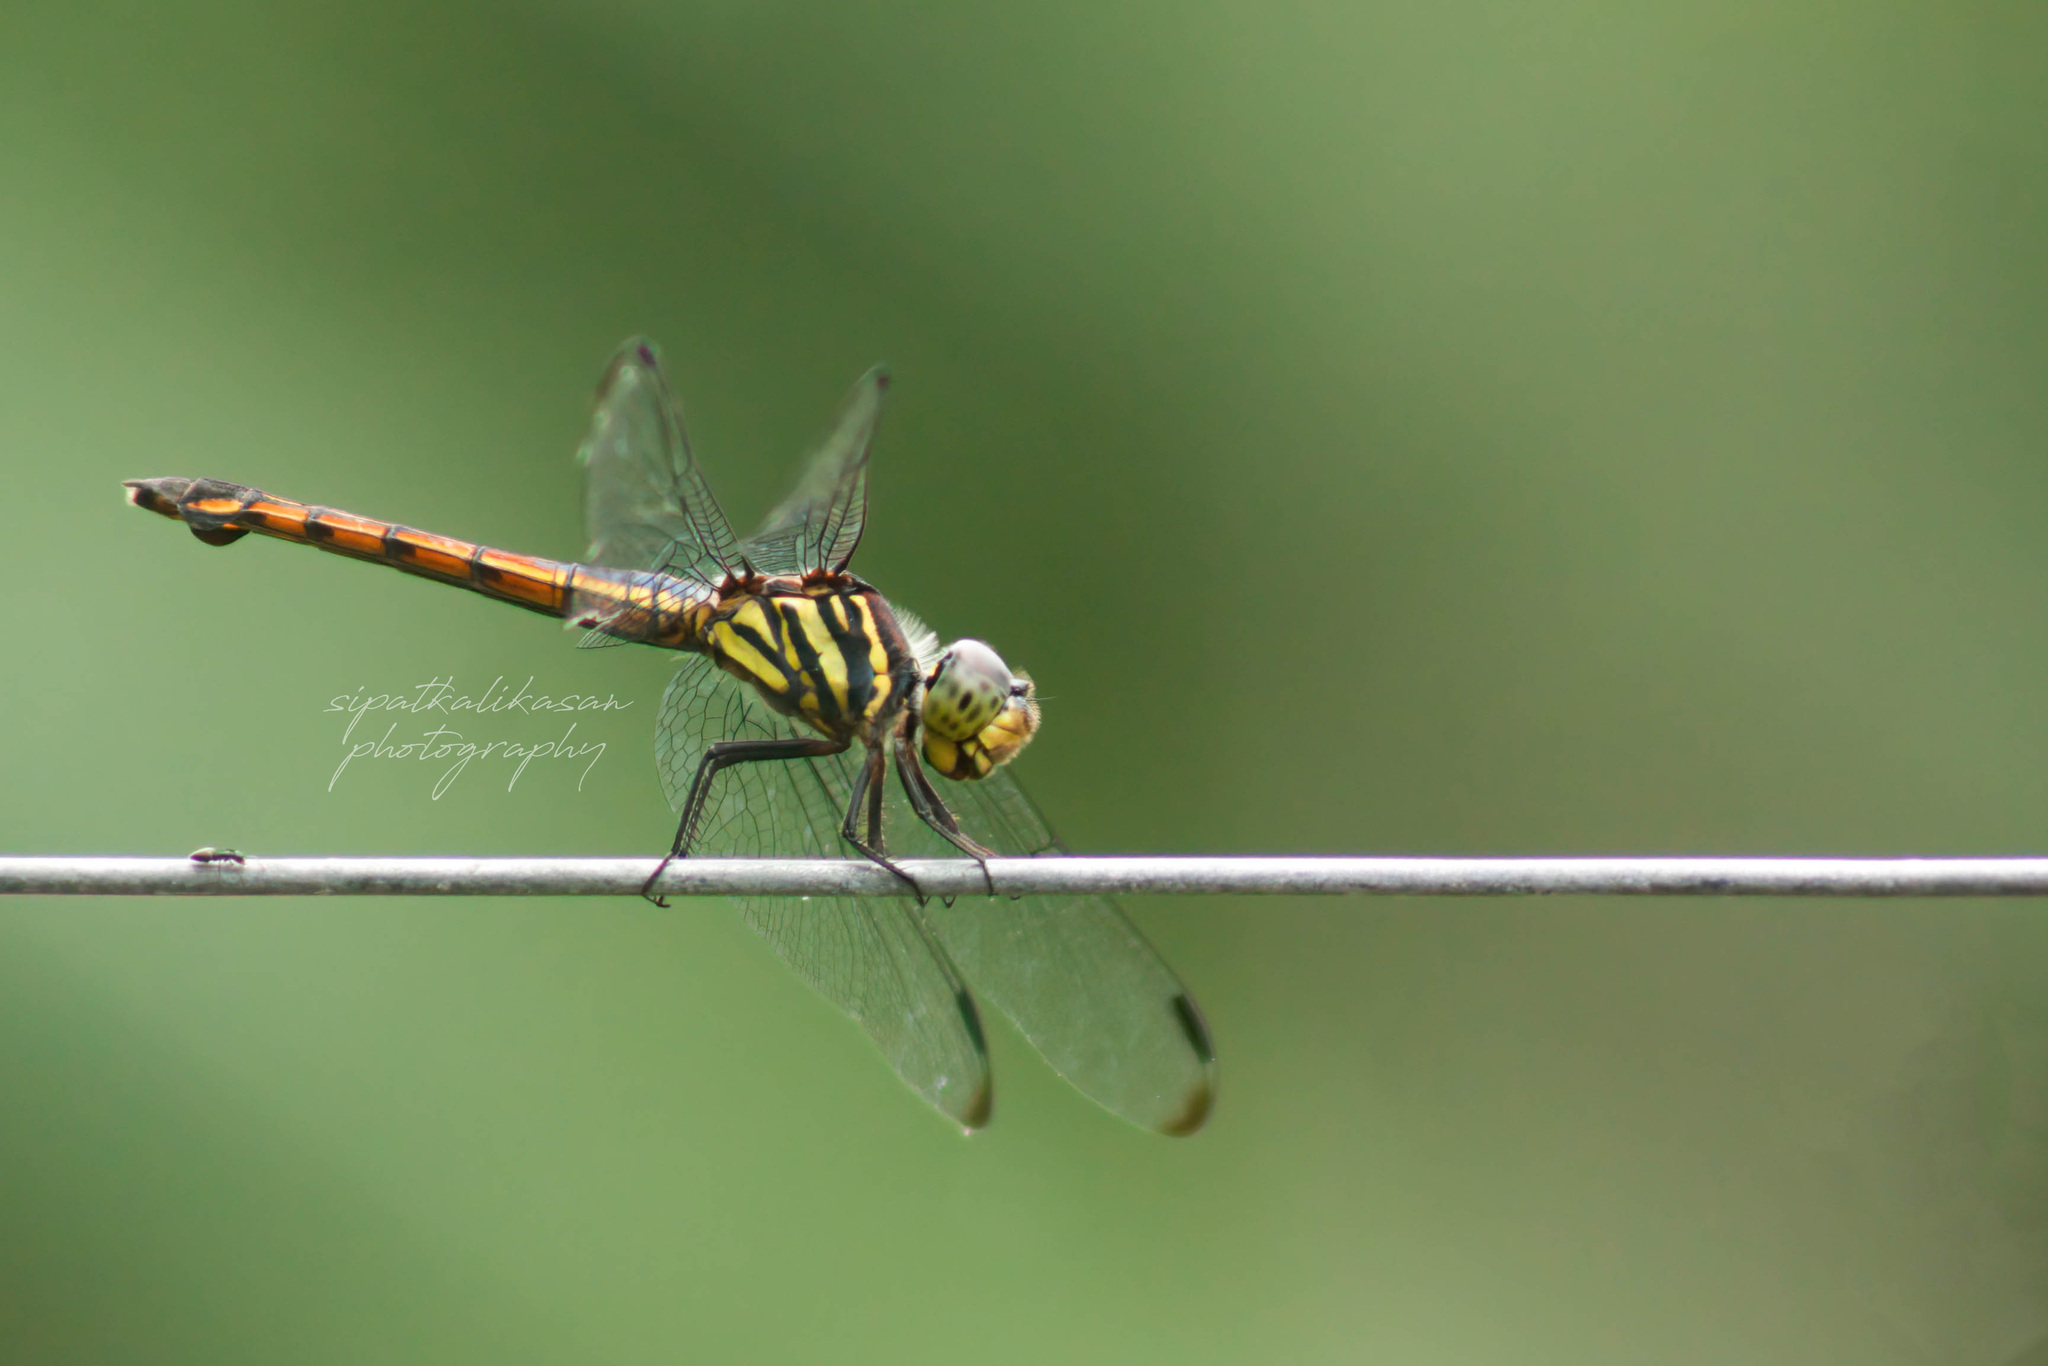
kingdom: Animalia
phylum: Arthropoda
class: Insecta
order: Odonata
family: Libellulidae
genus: Potamarcha
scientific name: Potamarcha congener
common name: Blue chaser
